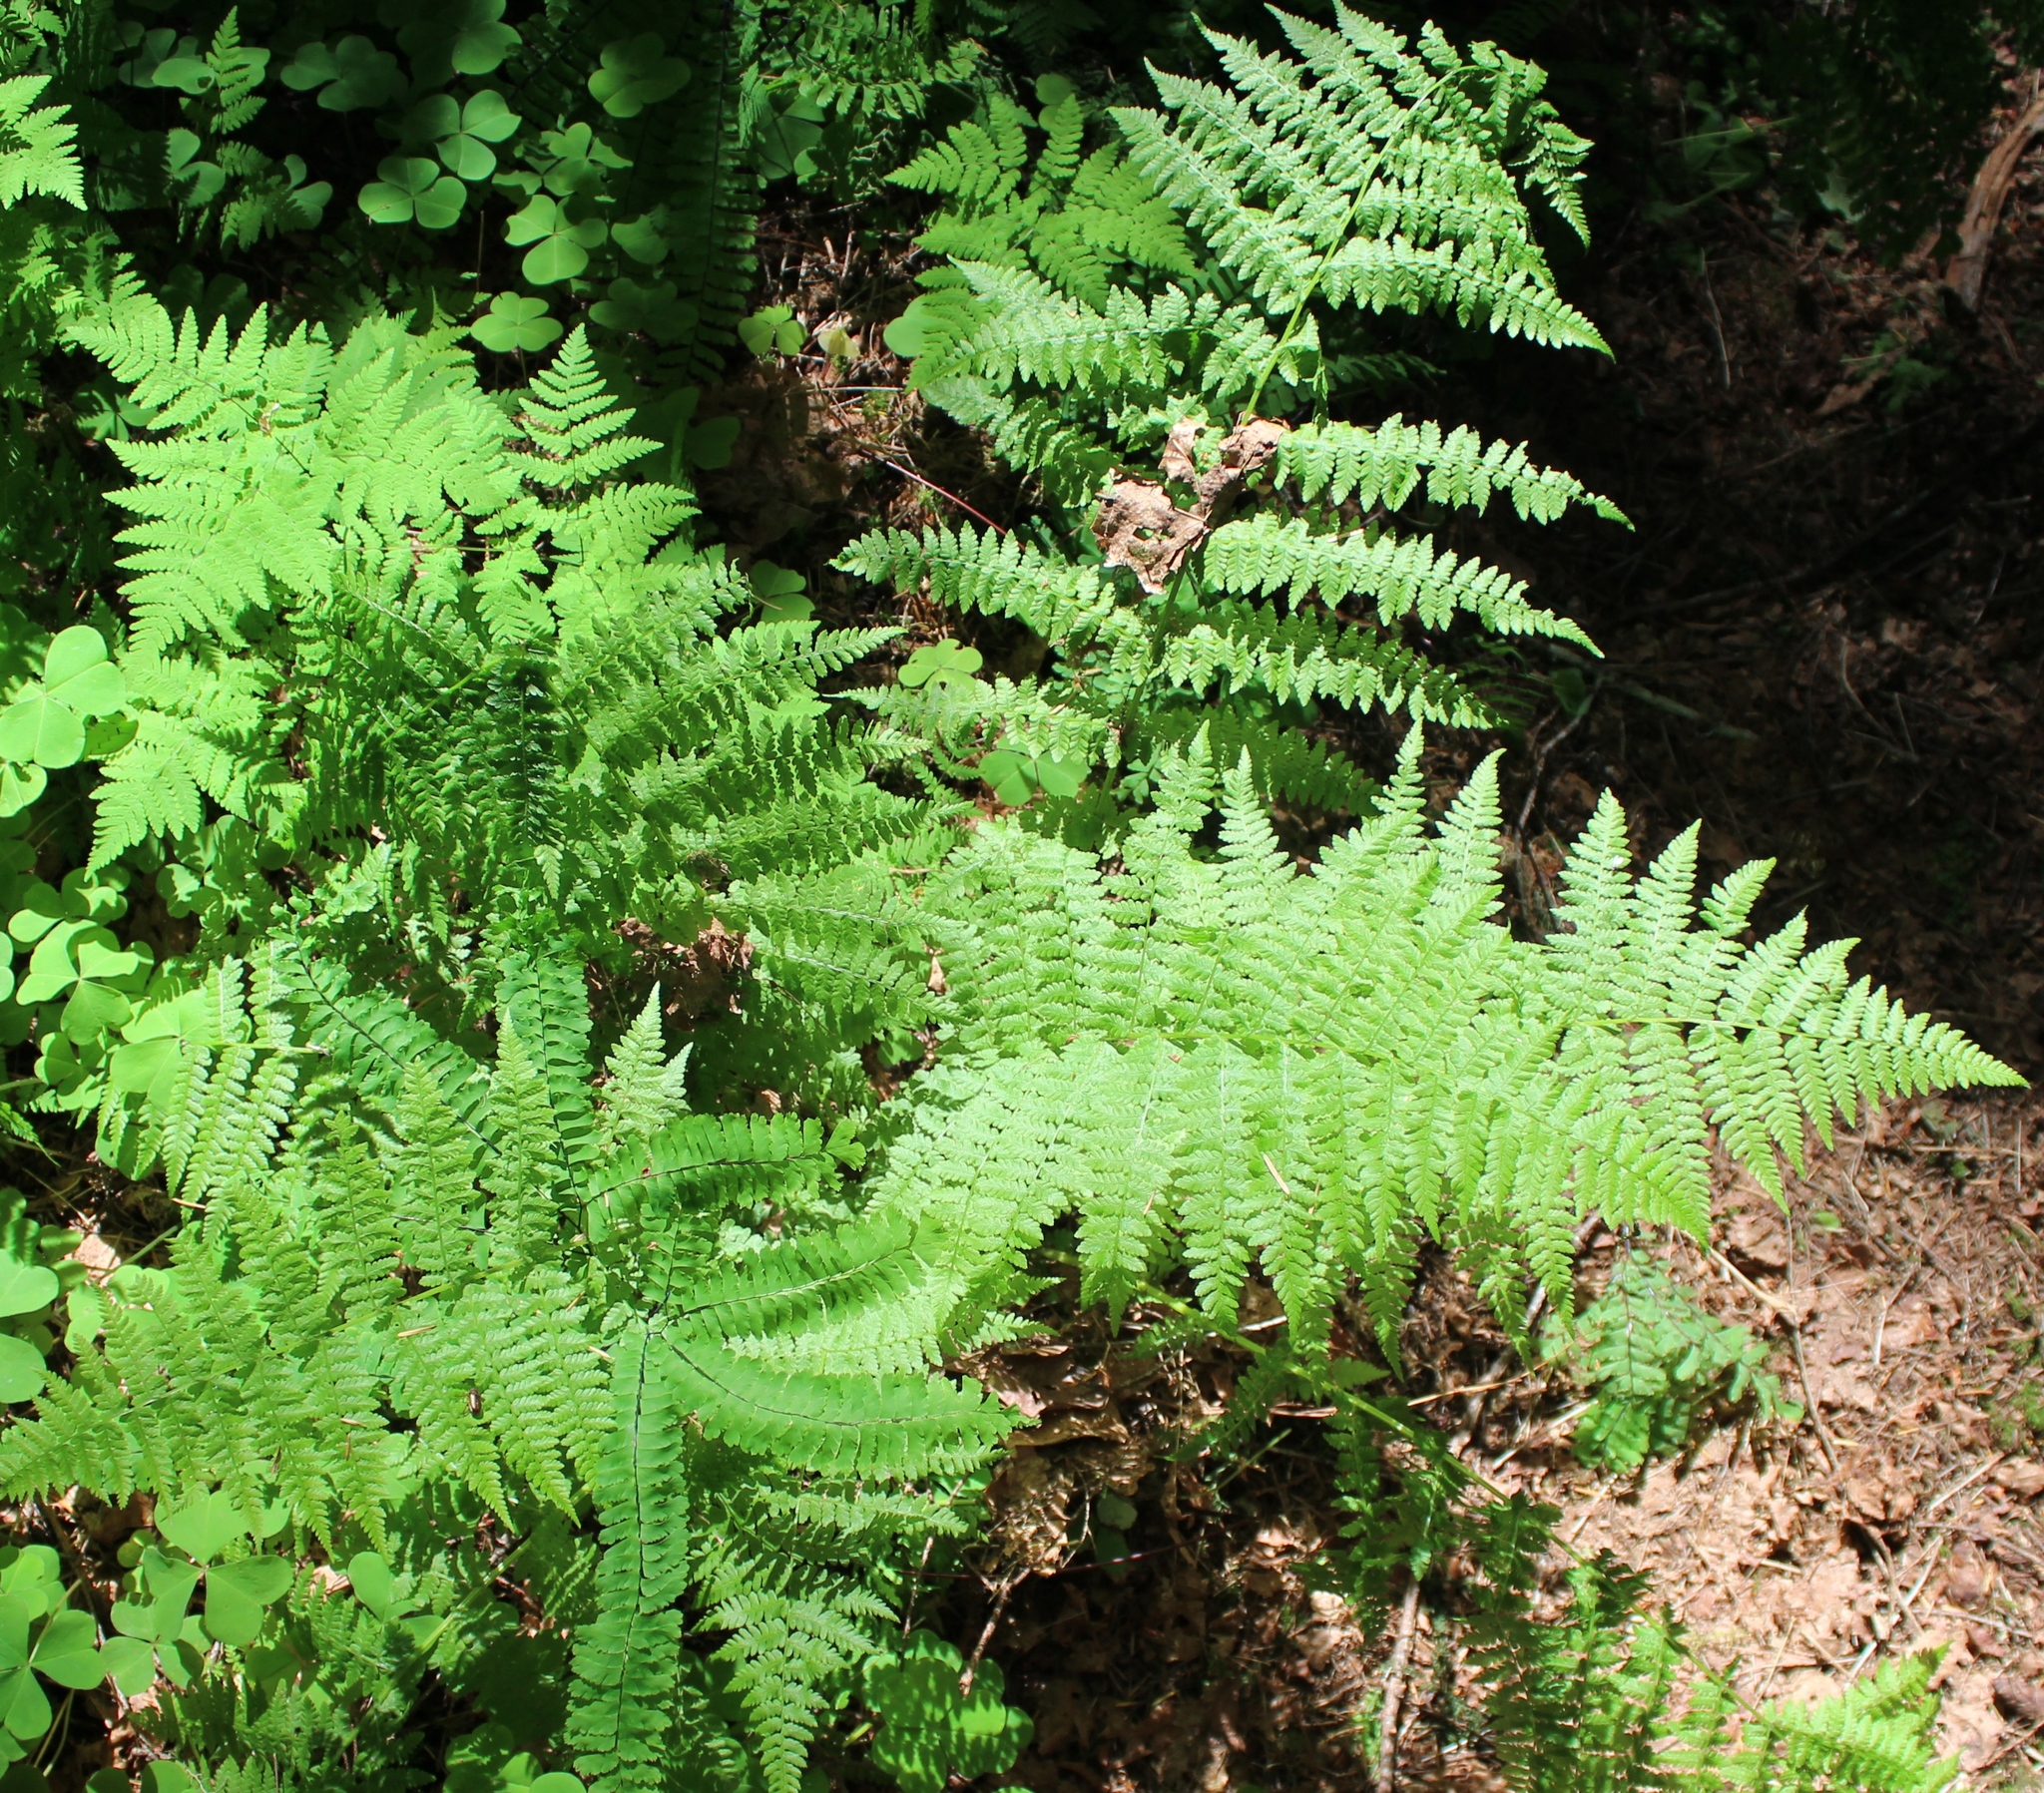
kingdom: Plantae
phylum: Tracheophyta
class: Polypodiopsida
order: Polypodiales
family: Athyriaceae
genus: Athyrium
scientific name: Athyrium filix-femina
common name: Lady fern
